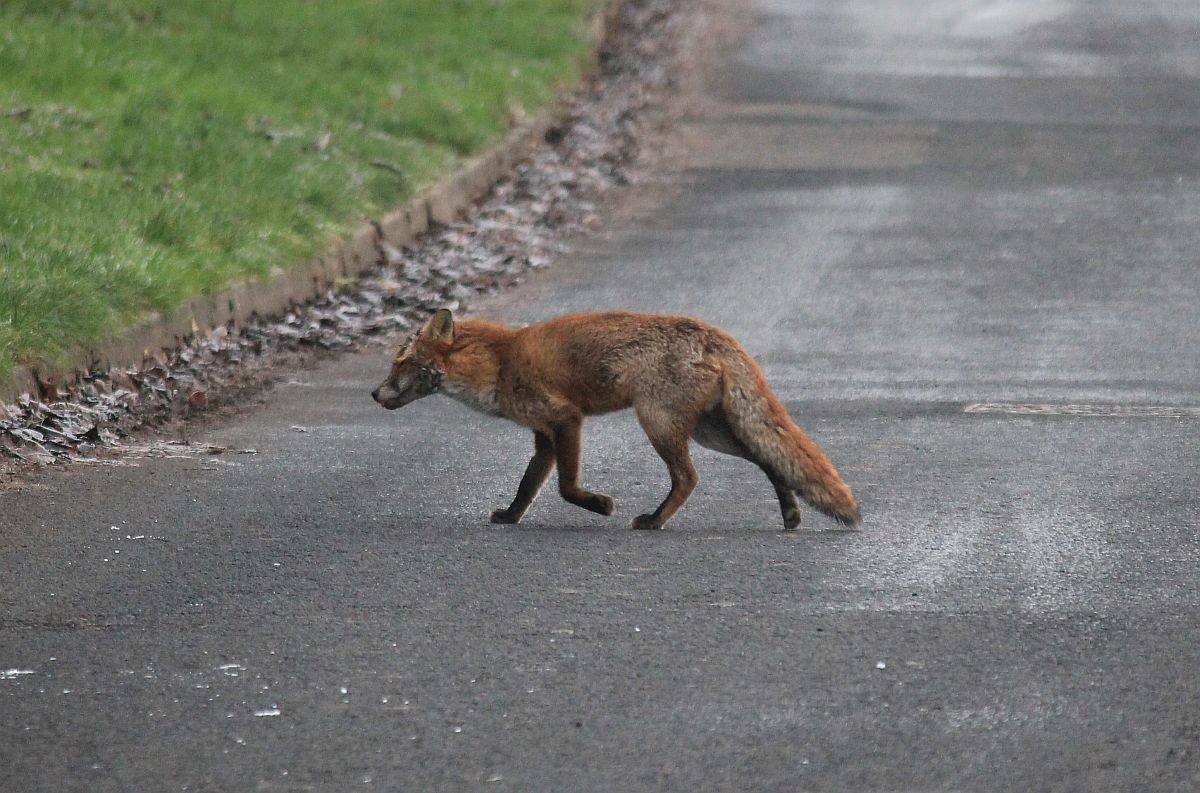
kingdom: Animalia
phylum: Chordata
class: Mammalia
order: Carnivora
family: Canidae
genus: Vulpes
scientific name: Vulpes vulpes
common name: Red fox
